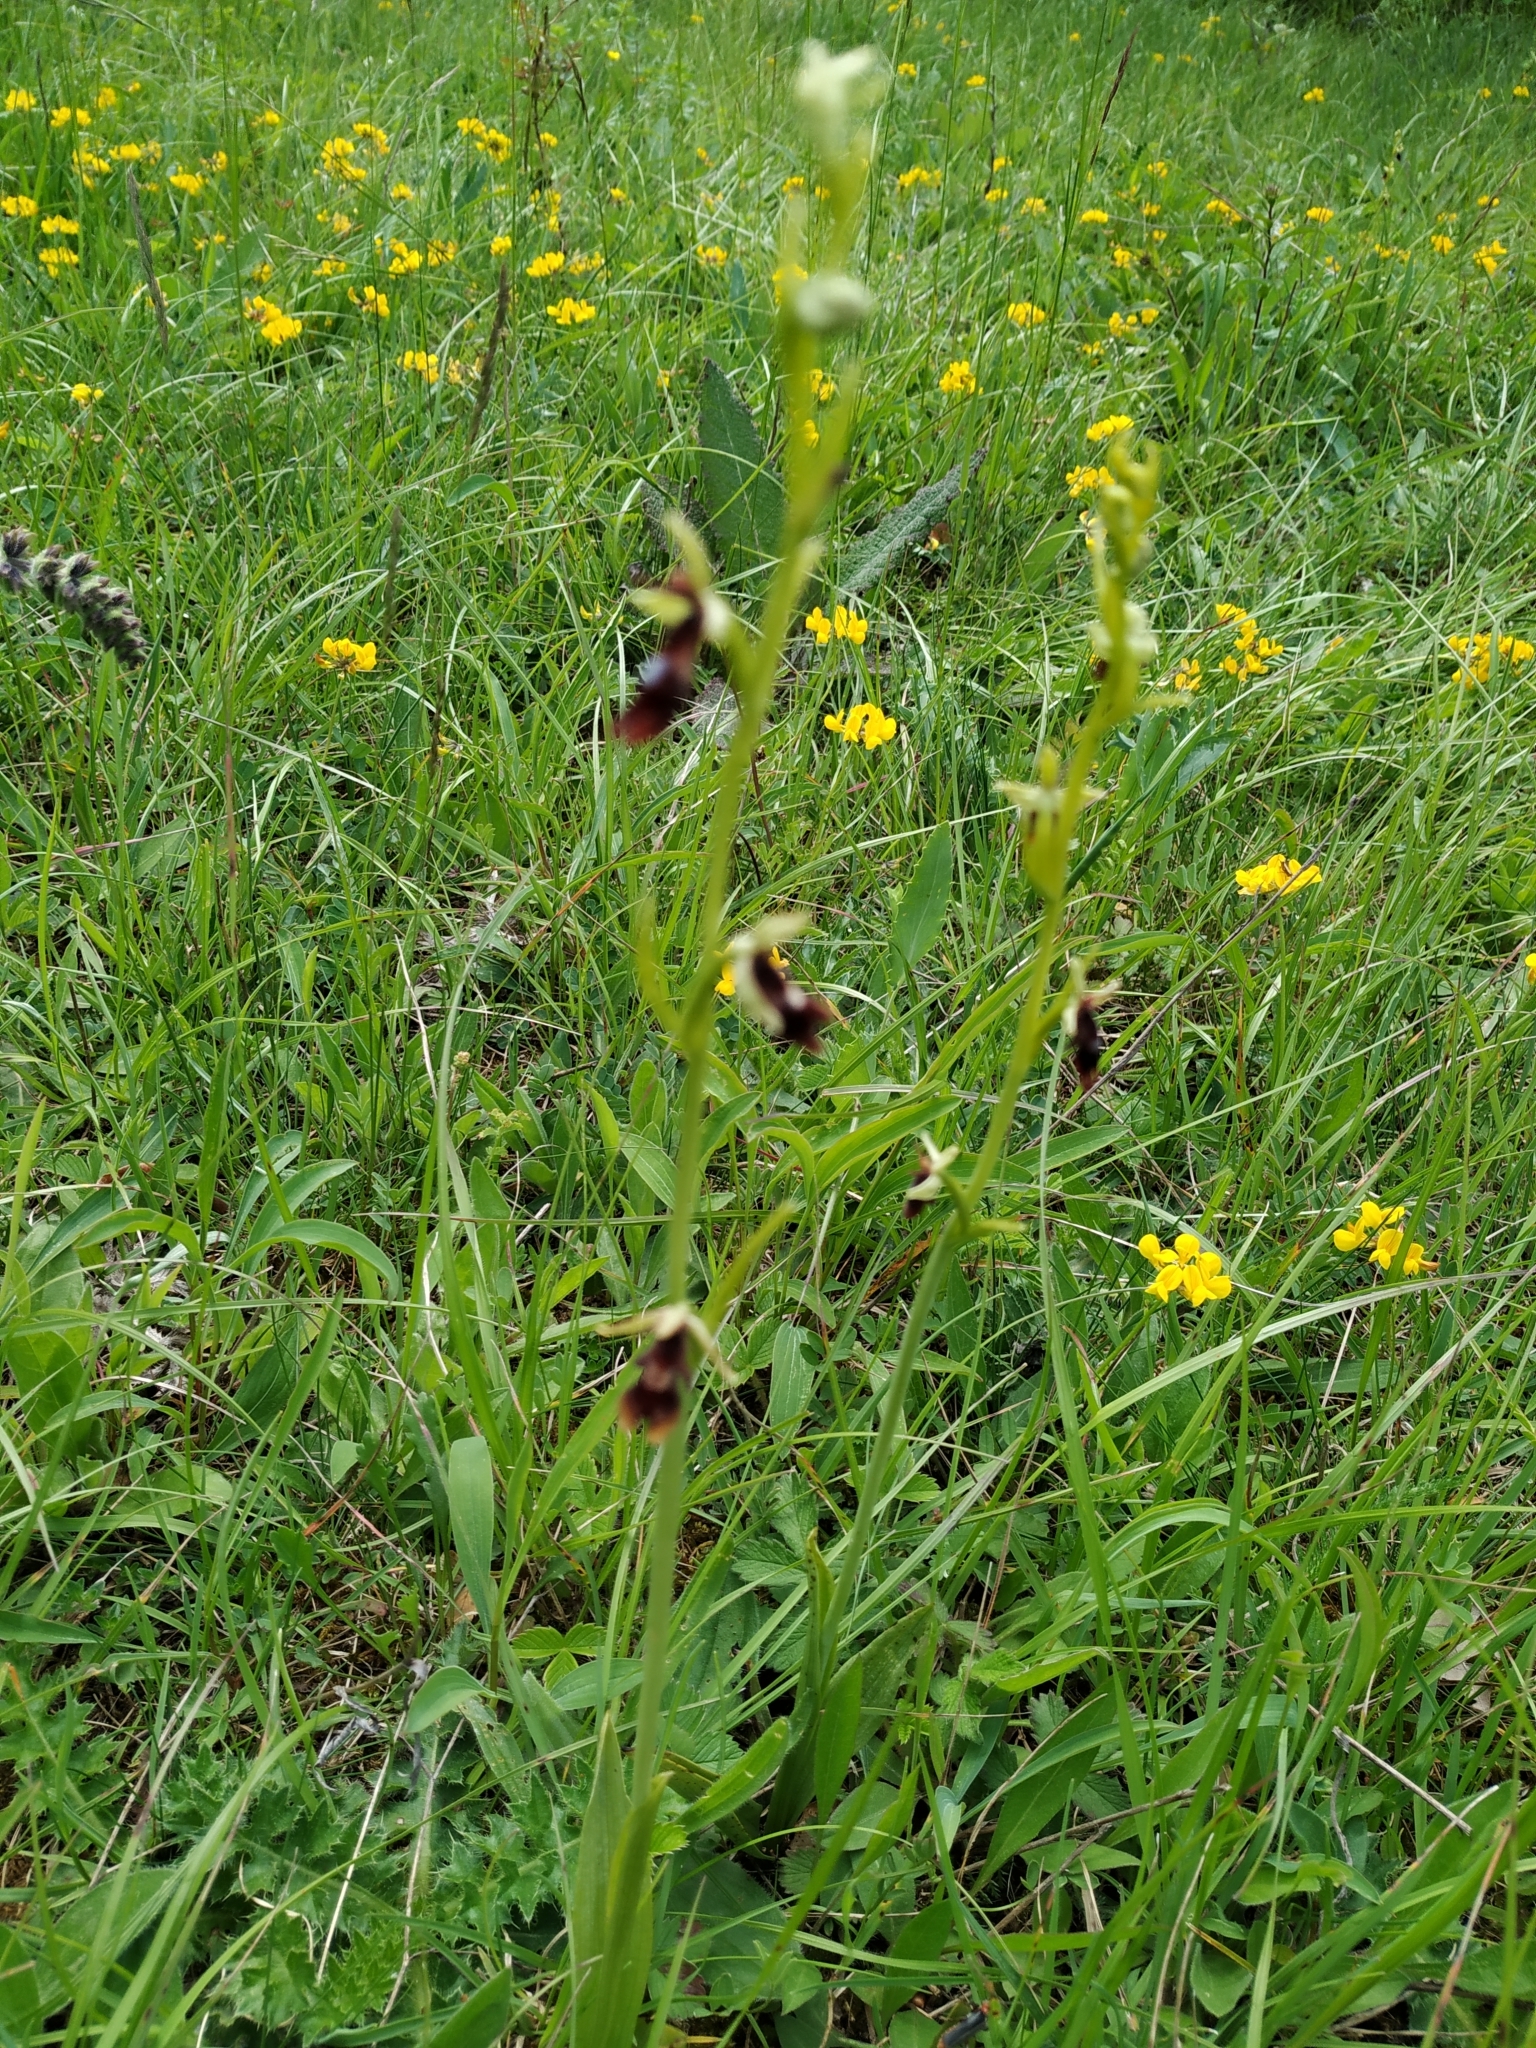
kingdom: Plantae
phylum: Tracheophyta
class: Liliopsida
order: Asparagales
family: Orchidaceae
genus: Ophrys
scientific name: Ophrys insectifera
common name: Fly orchid
